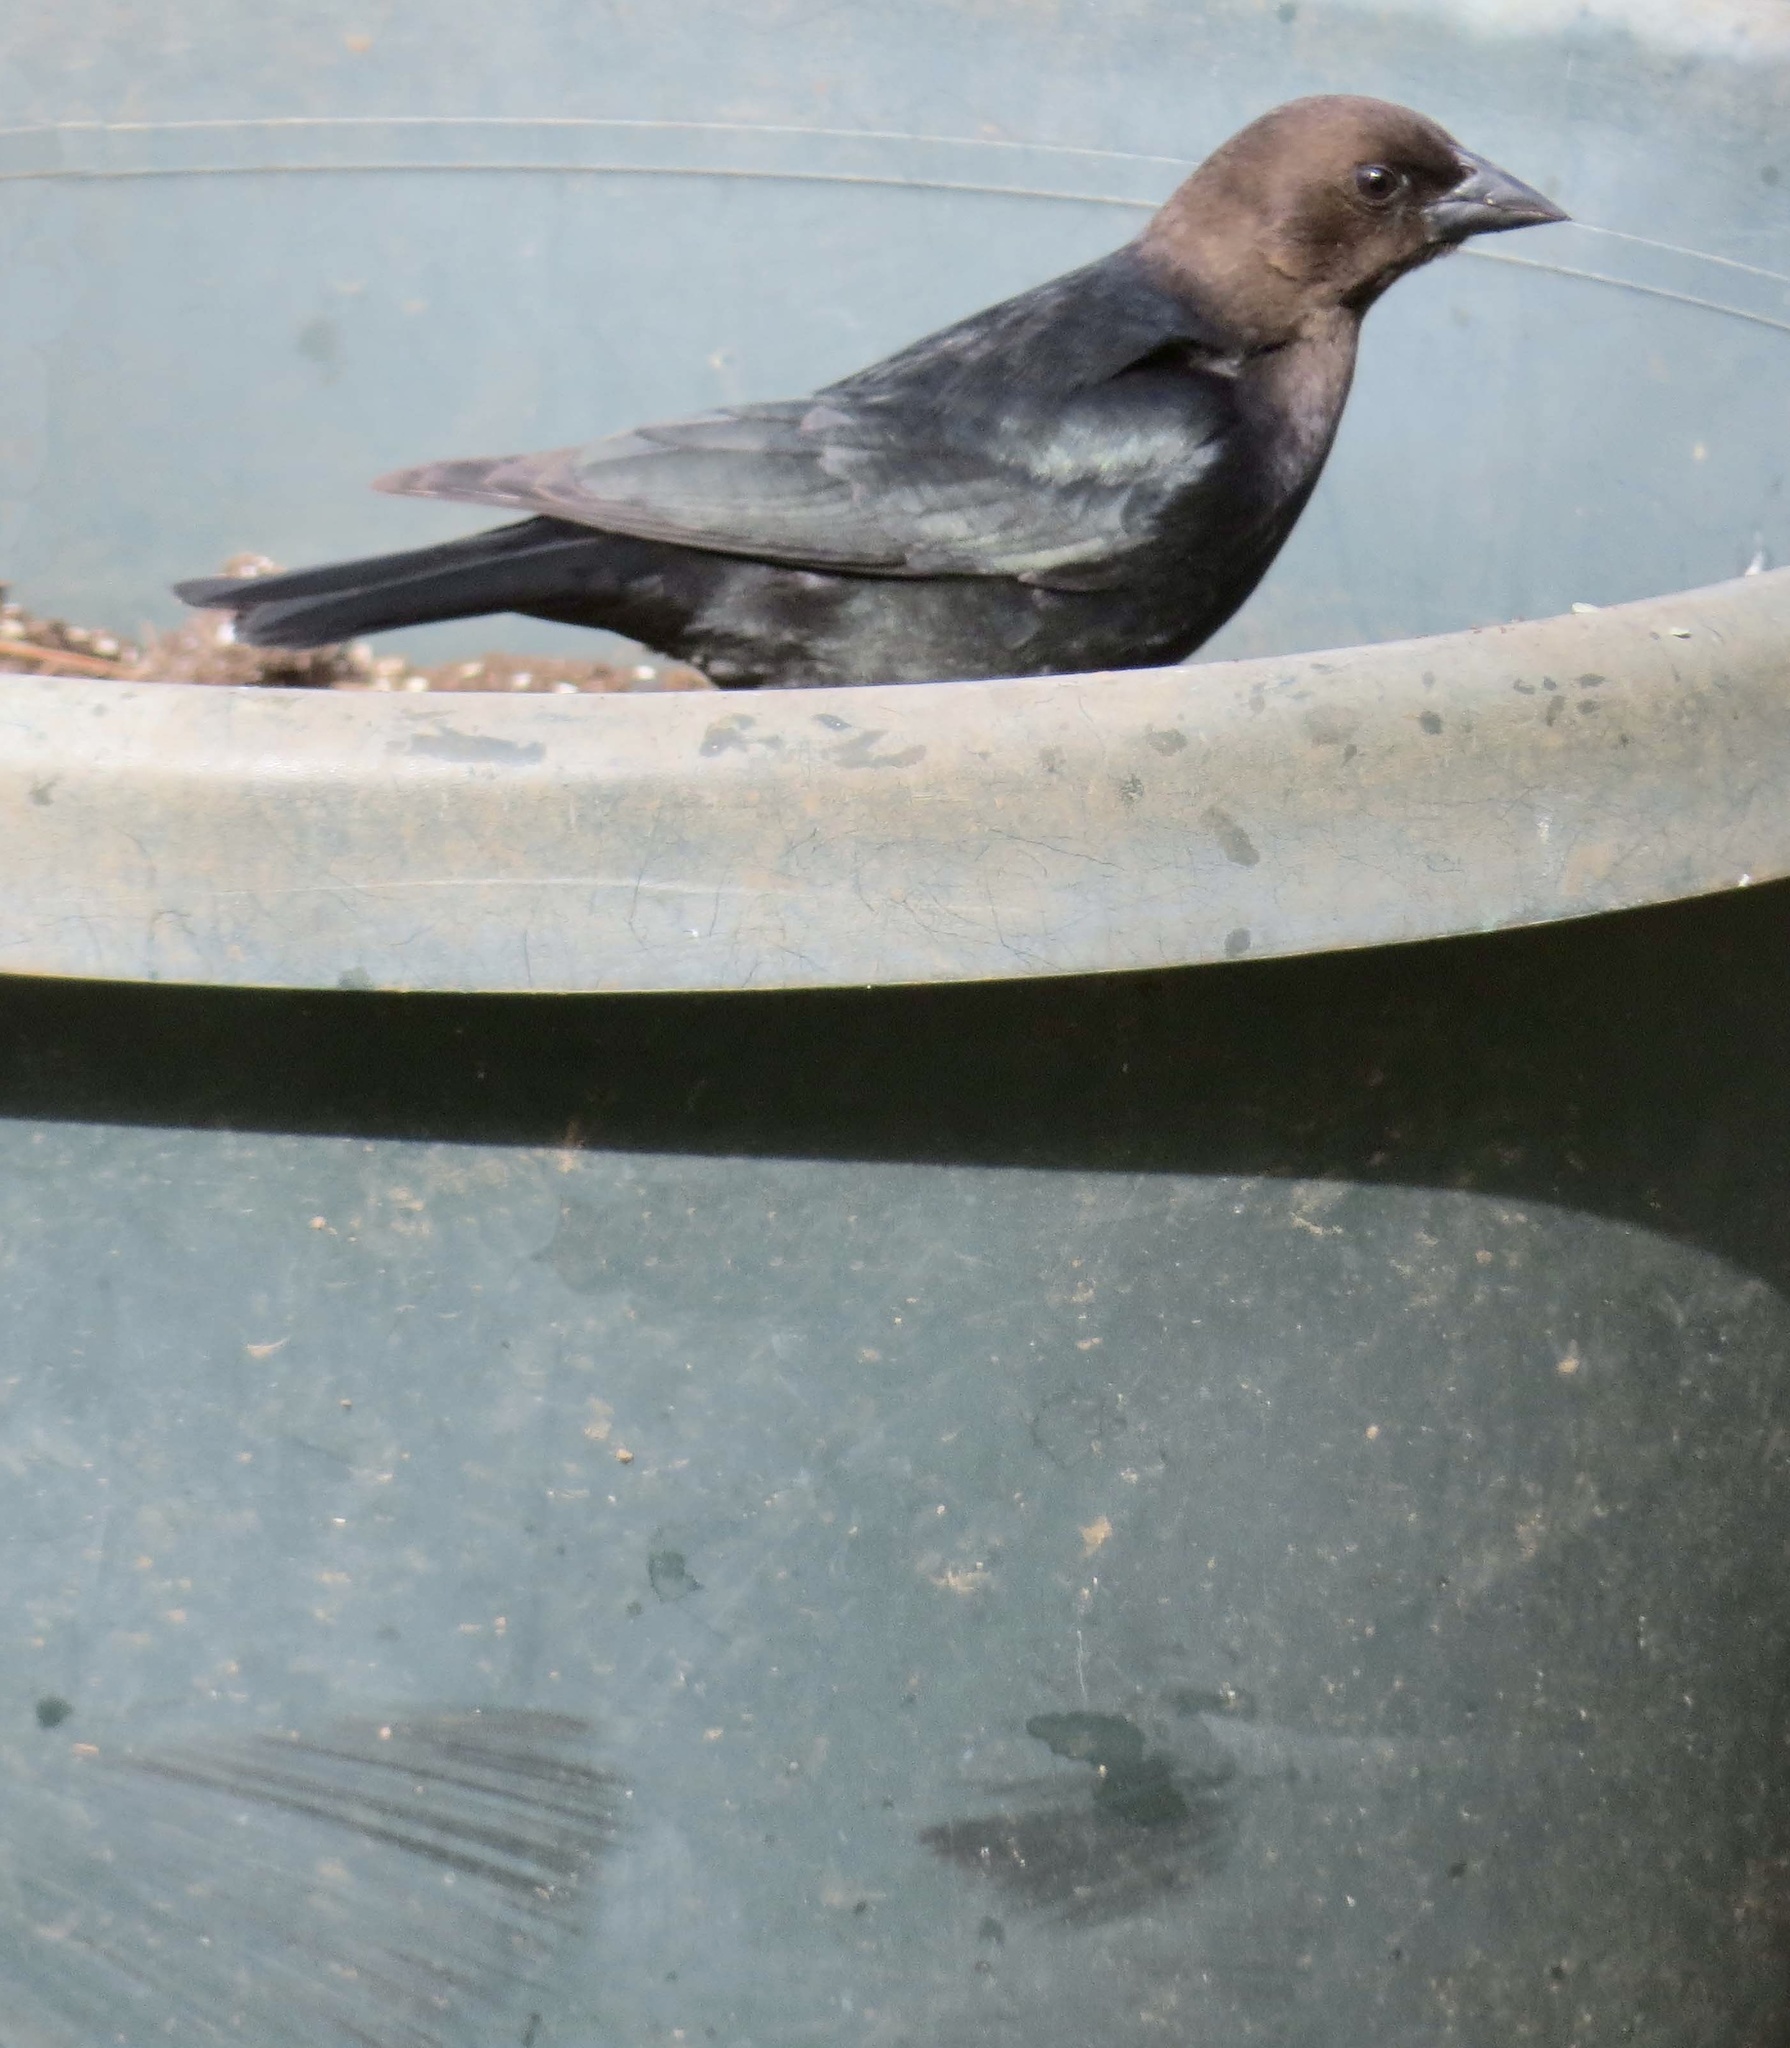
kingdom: Animalia
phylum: Chordata
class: Aves
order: Passeriformes
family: Icteridae
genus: Molothrus
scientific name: Molothrus ater
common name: Brown-headed cowbird
